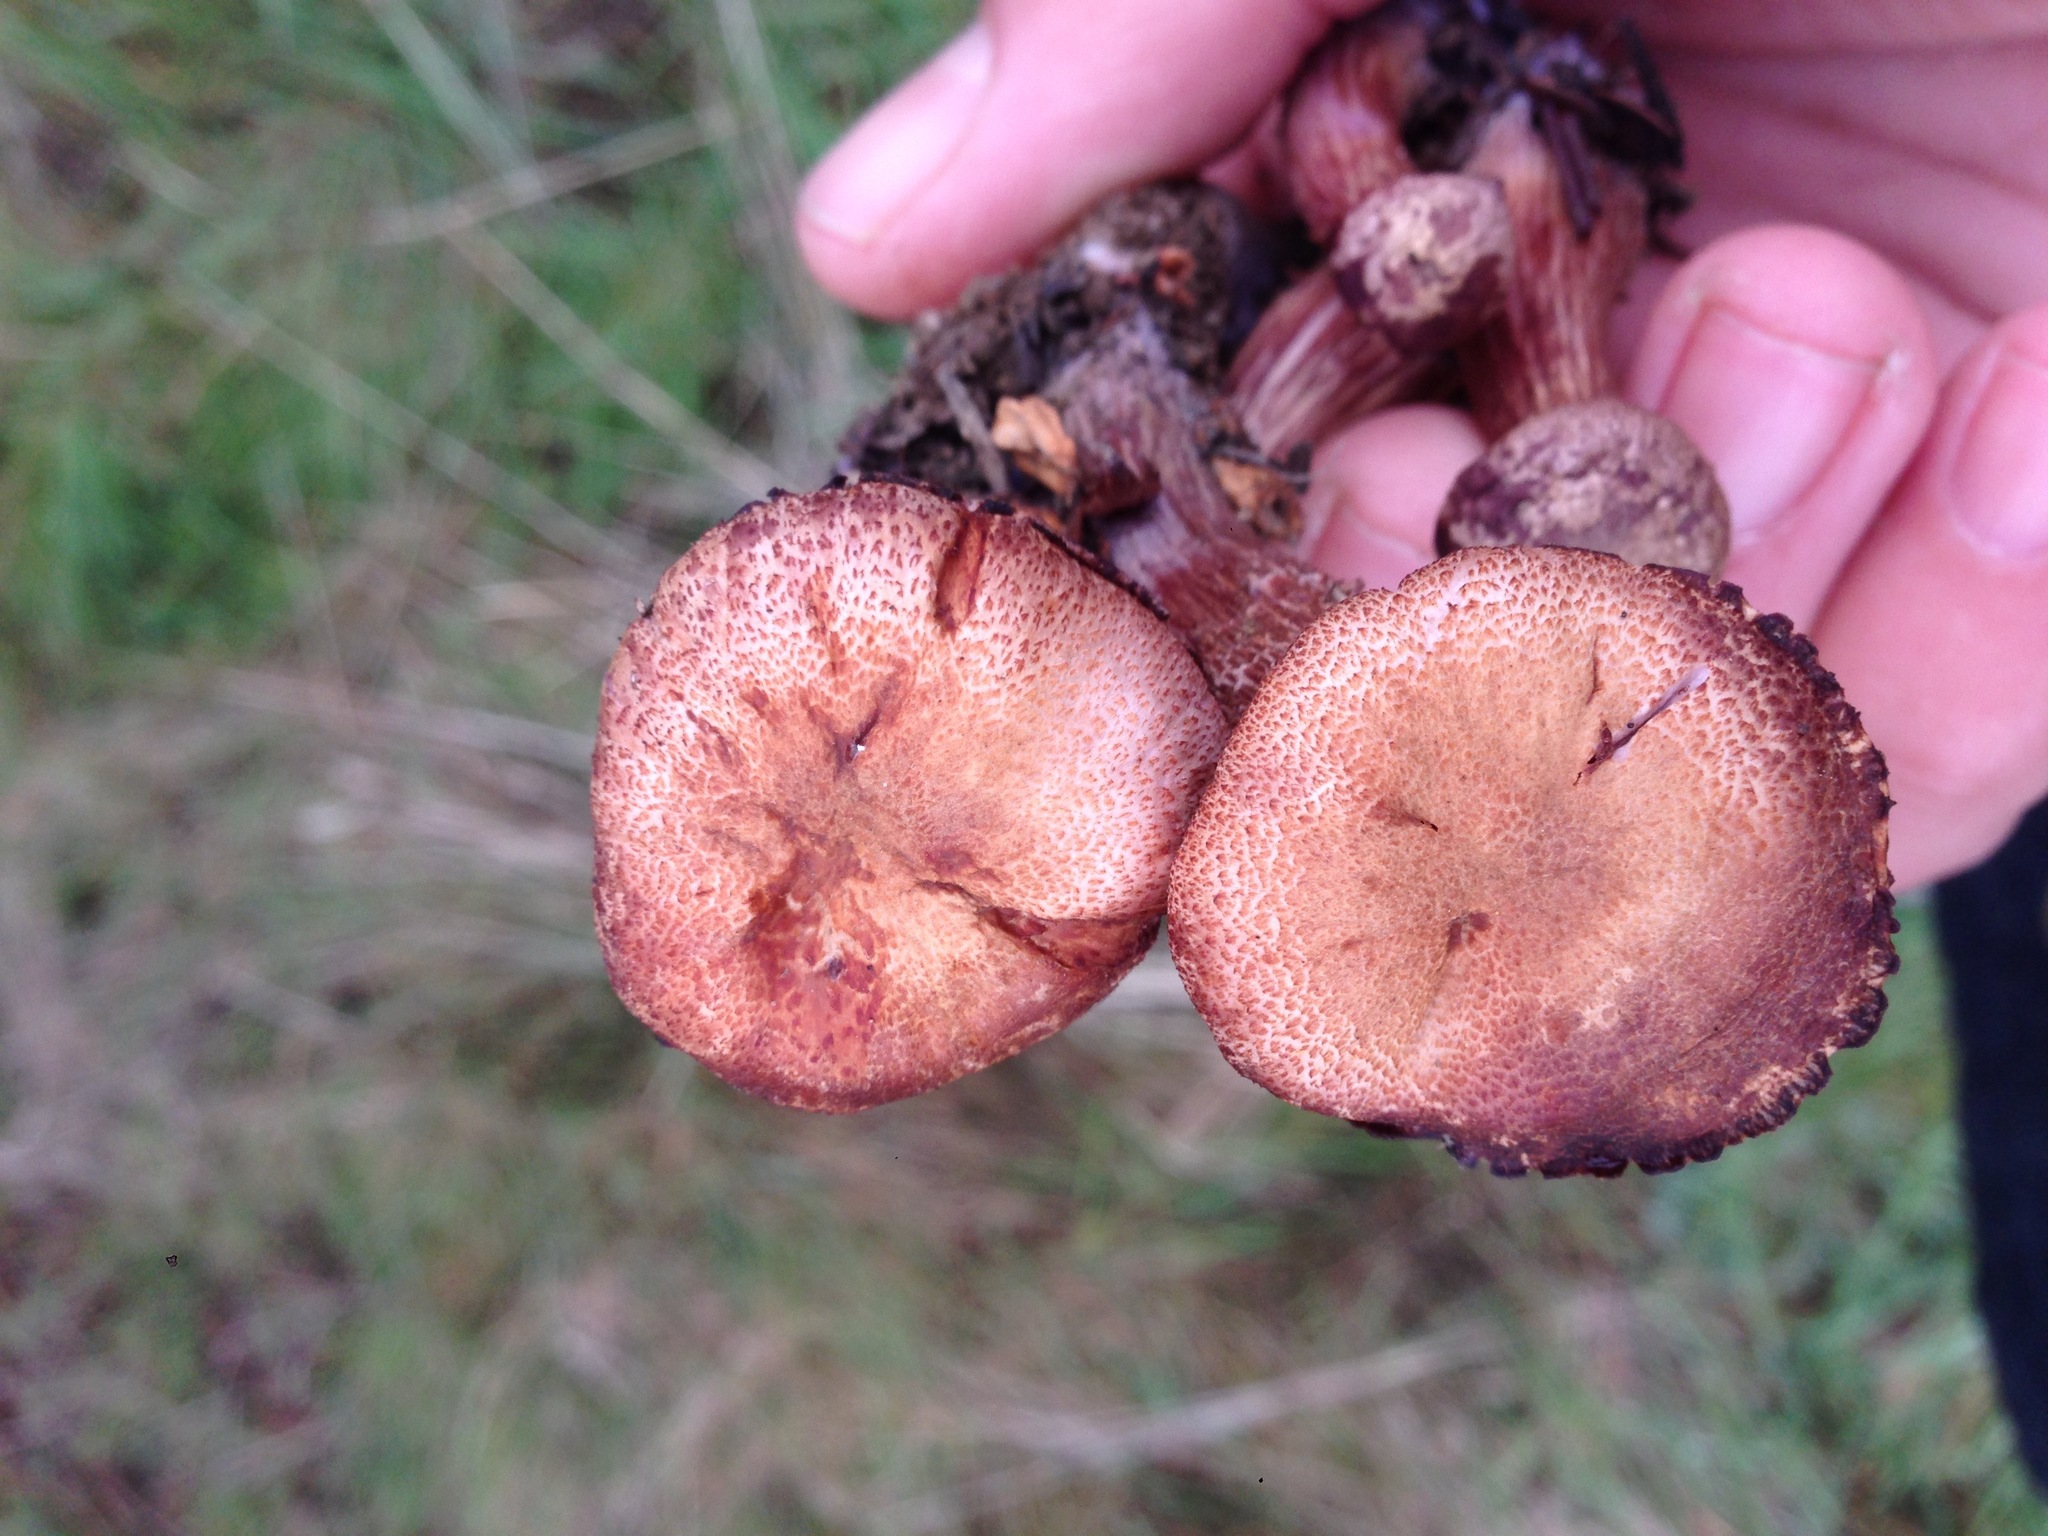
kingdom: Fungi
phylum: Basidiomycota
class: Agaricomycetes
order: Agaricales
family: Hydnangiaceae
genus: Laccaria
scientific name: Laccaria amethysteo-occidentalis
